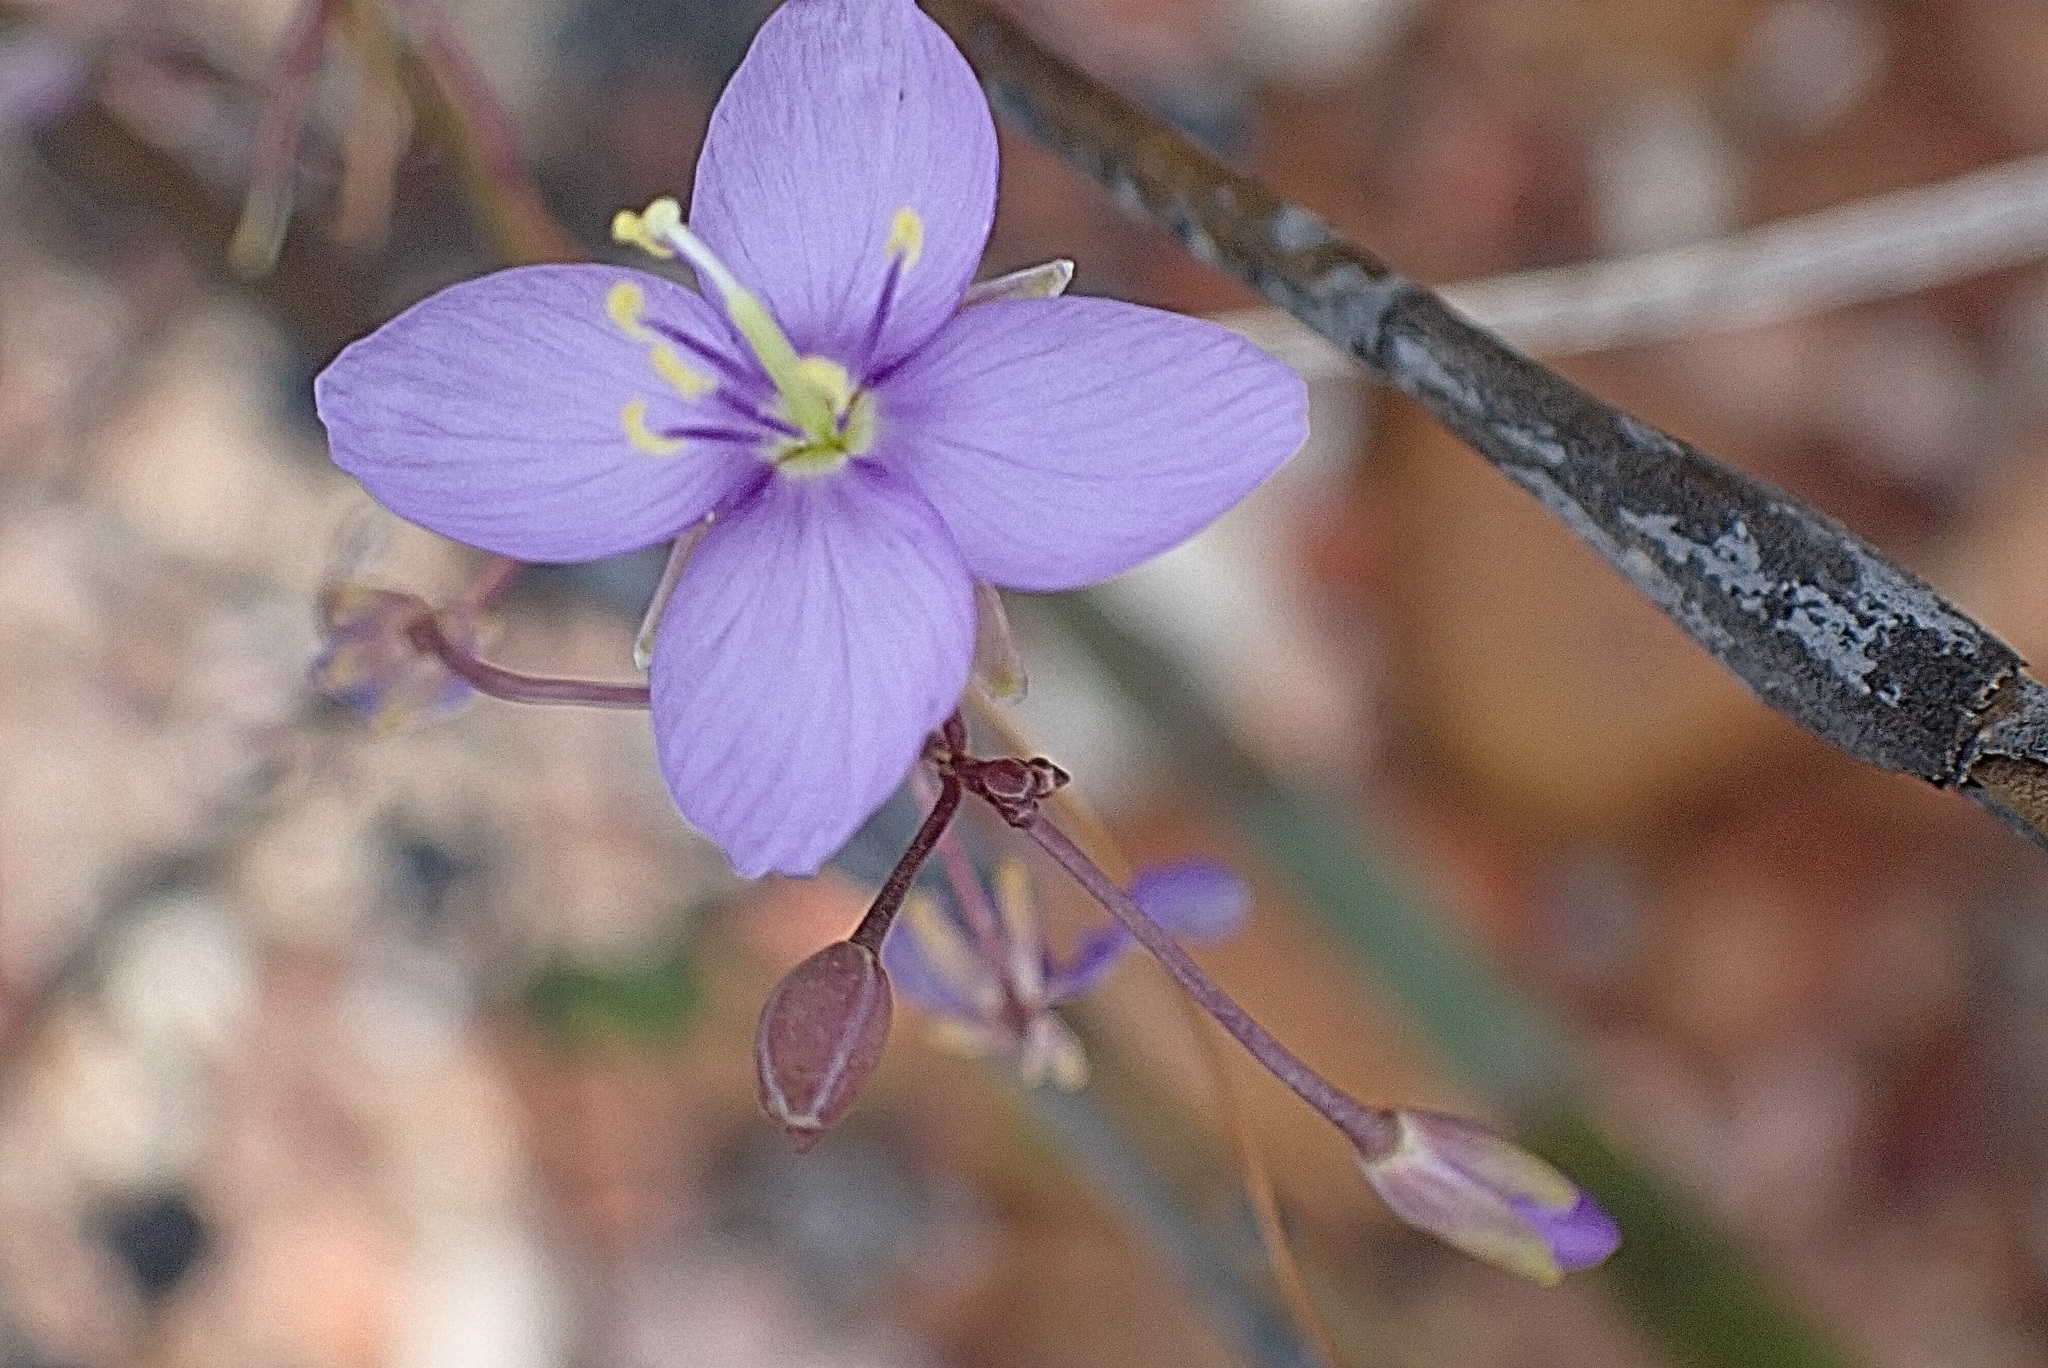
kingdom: Plantae
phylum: Tracheophyta
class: Magnoliopsida
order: Brassicales
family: Brassicaceae
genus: Heliophila
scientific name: Heliophila subulata
